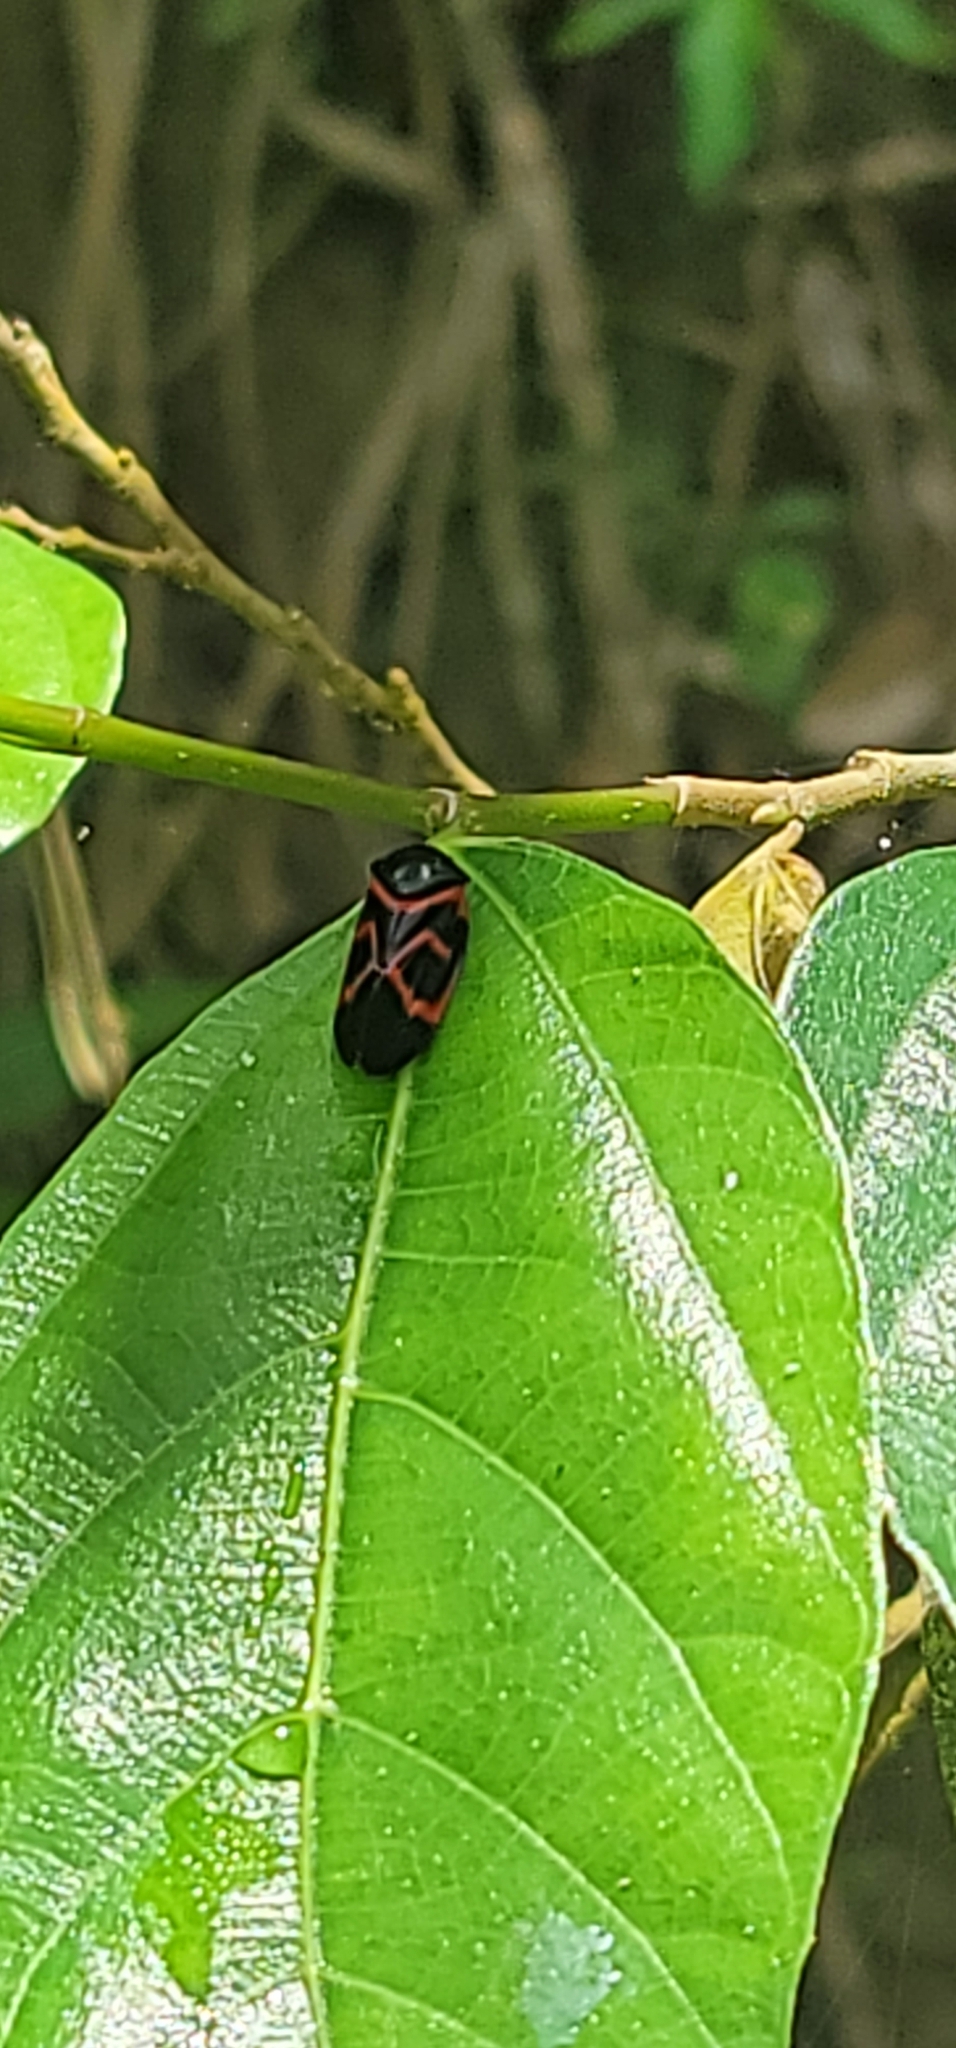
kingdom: Animalia
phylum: Arthropoda
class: Insecta
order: Hemiptera
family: Cercopidae
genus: Okiscarta
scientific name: Okiscarta uchidae
